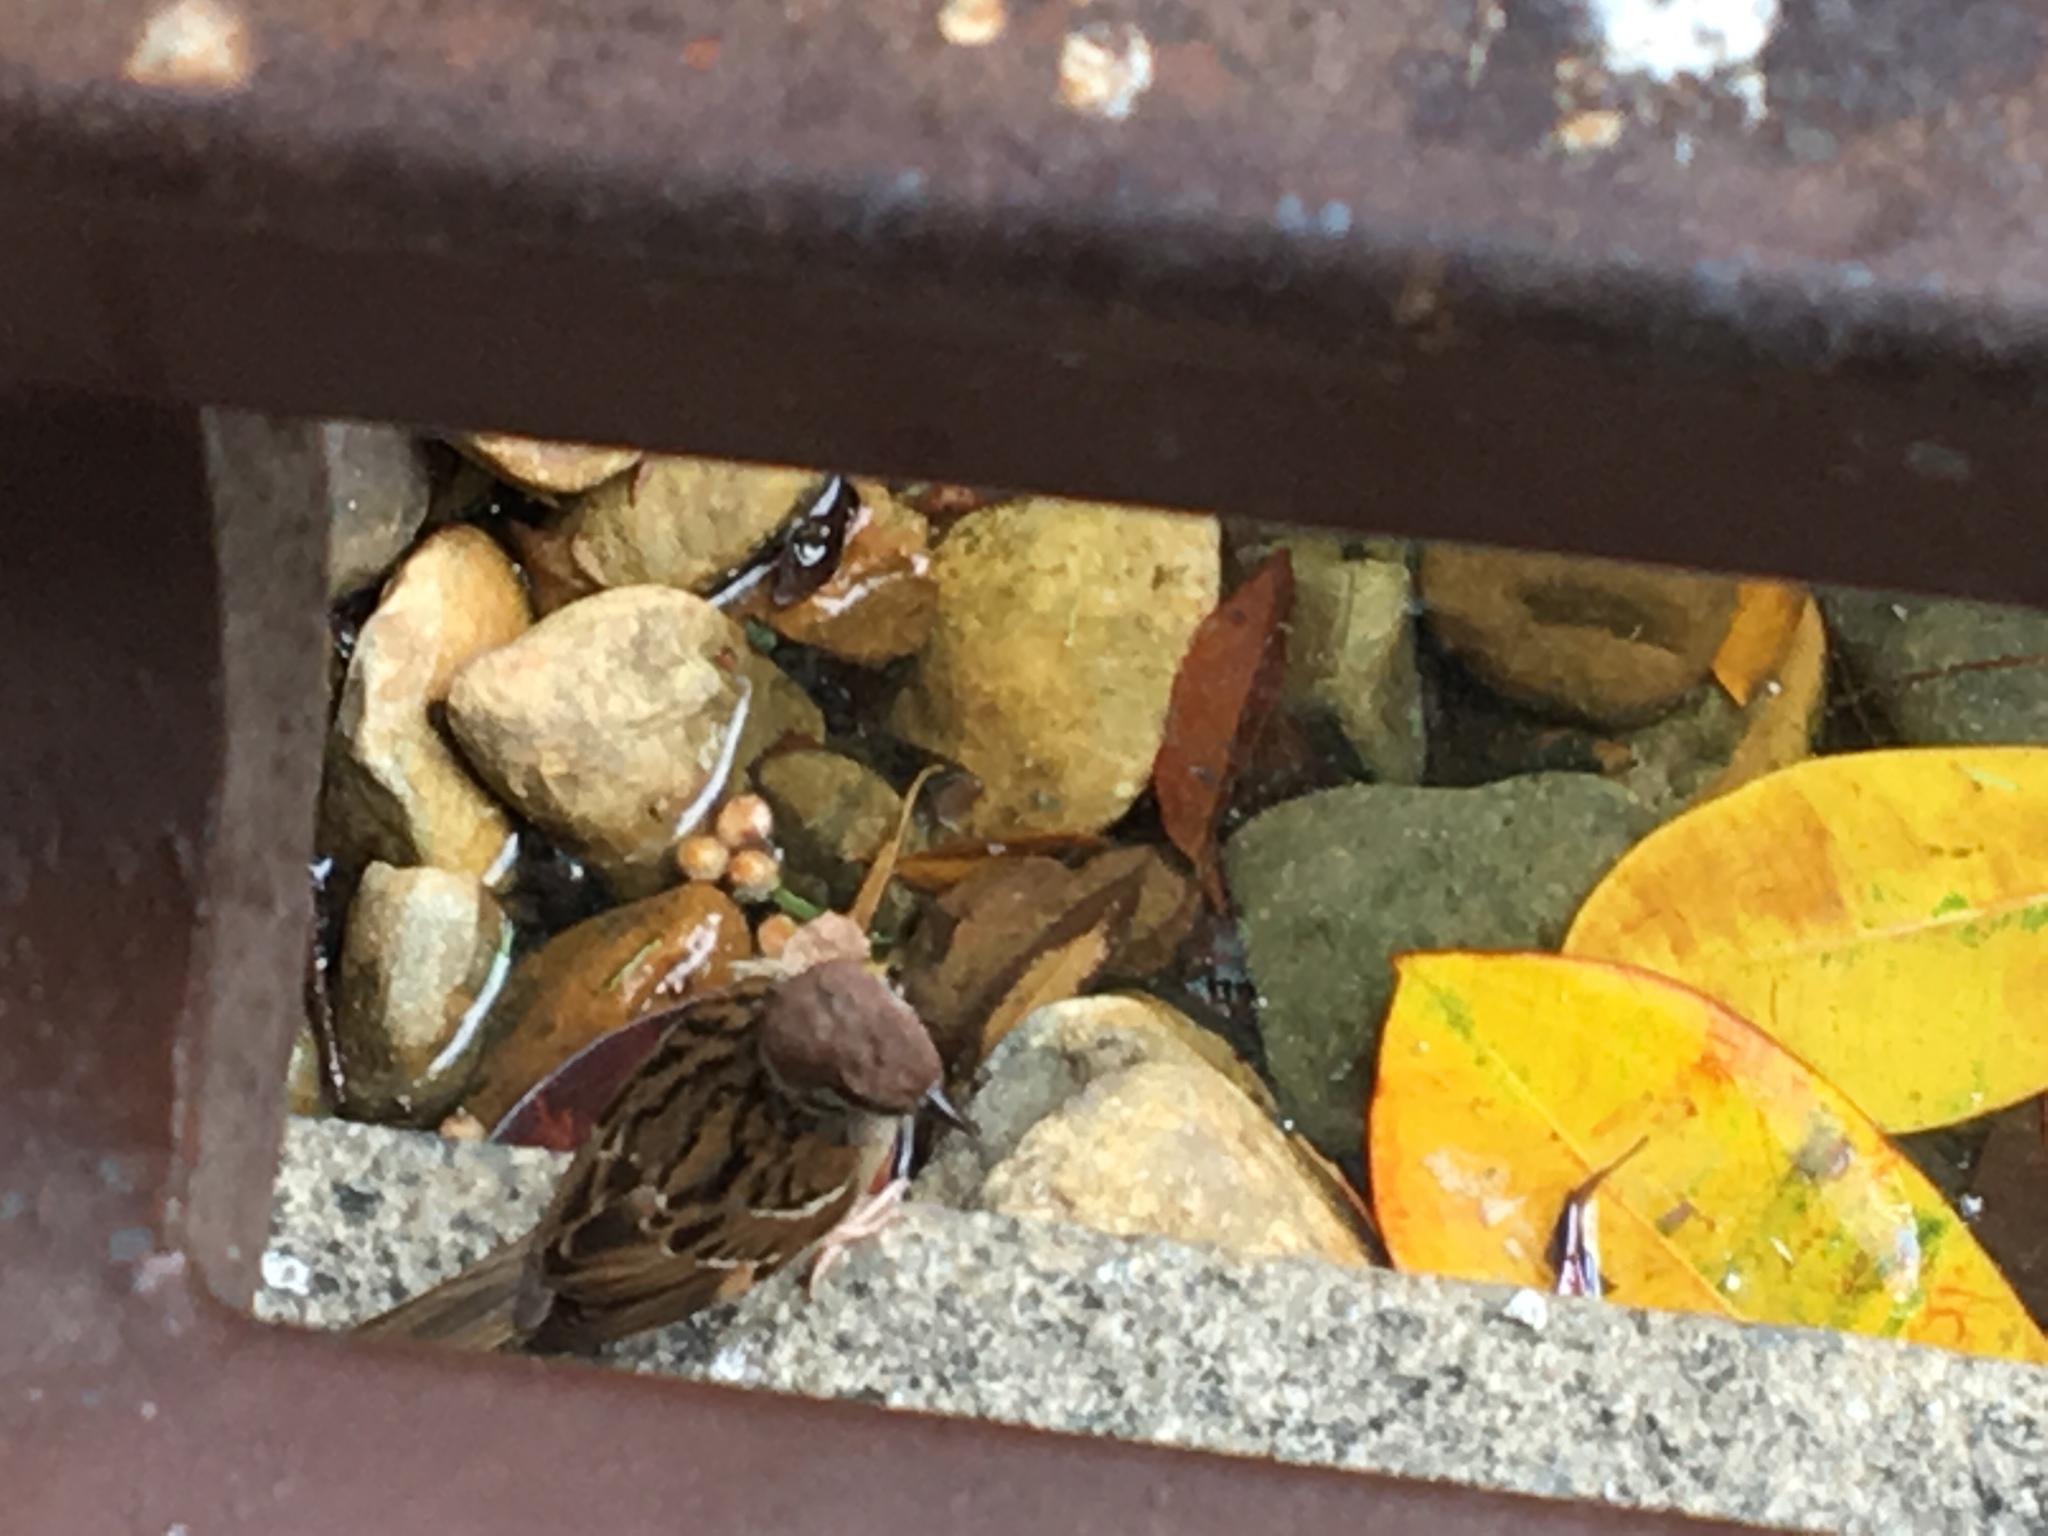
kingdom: Animalia
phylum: Chordata
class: Aves
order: Passeriformes
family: Passeridae
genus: Passer
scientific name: Passer montanus
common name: Eurasian tree sparrow
